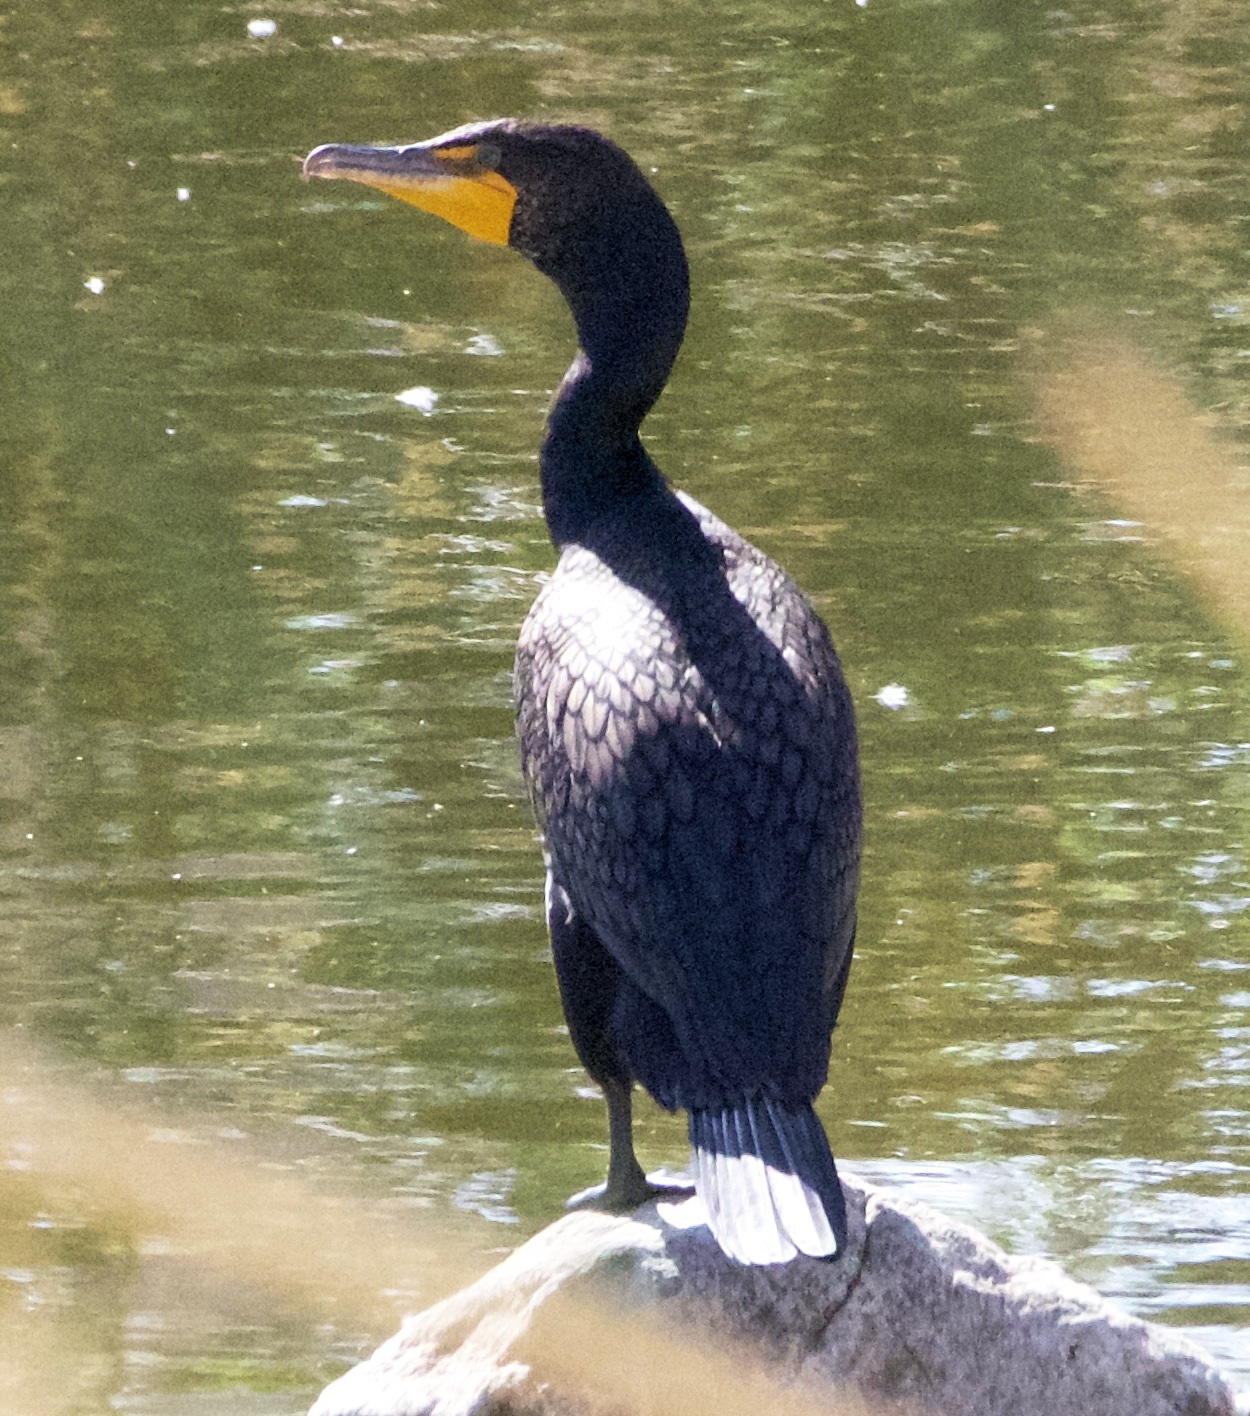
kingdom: Animalia
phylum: Chordata
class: Aves
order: Suliformes
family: Phalacrocoracidae
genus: Phalacrocorax
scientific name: Phalacrocorax auritus
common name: Double-crested cormorant
